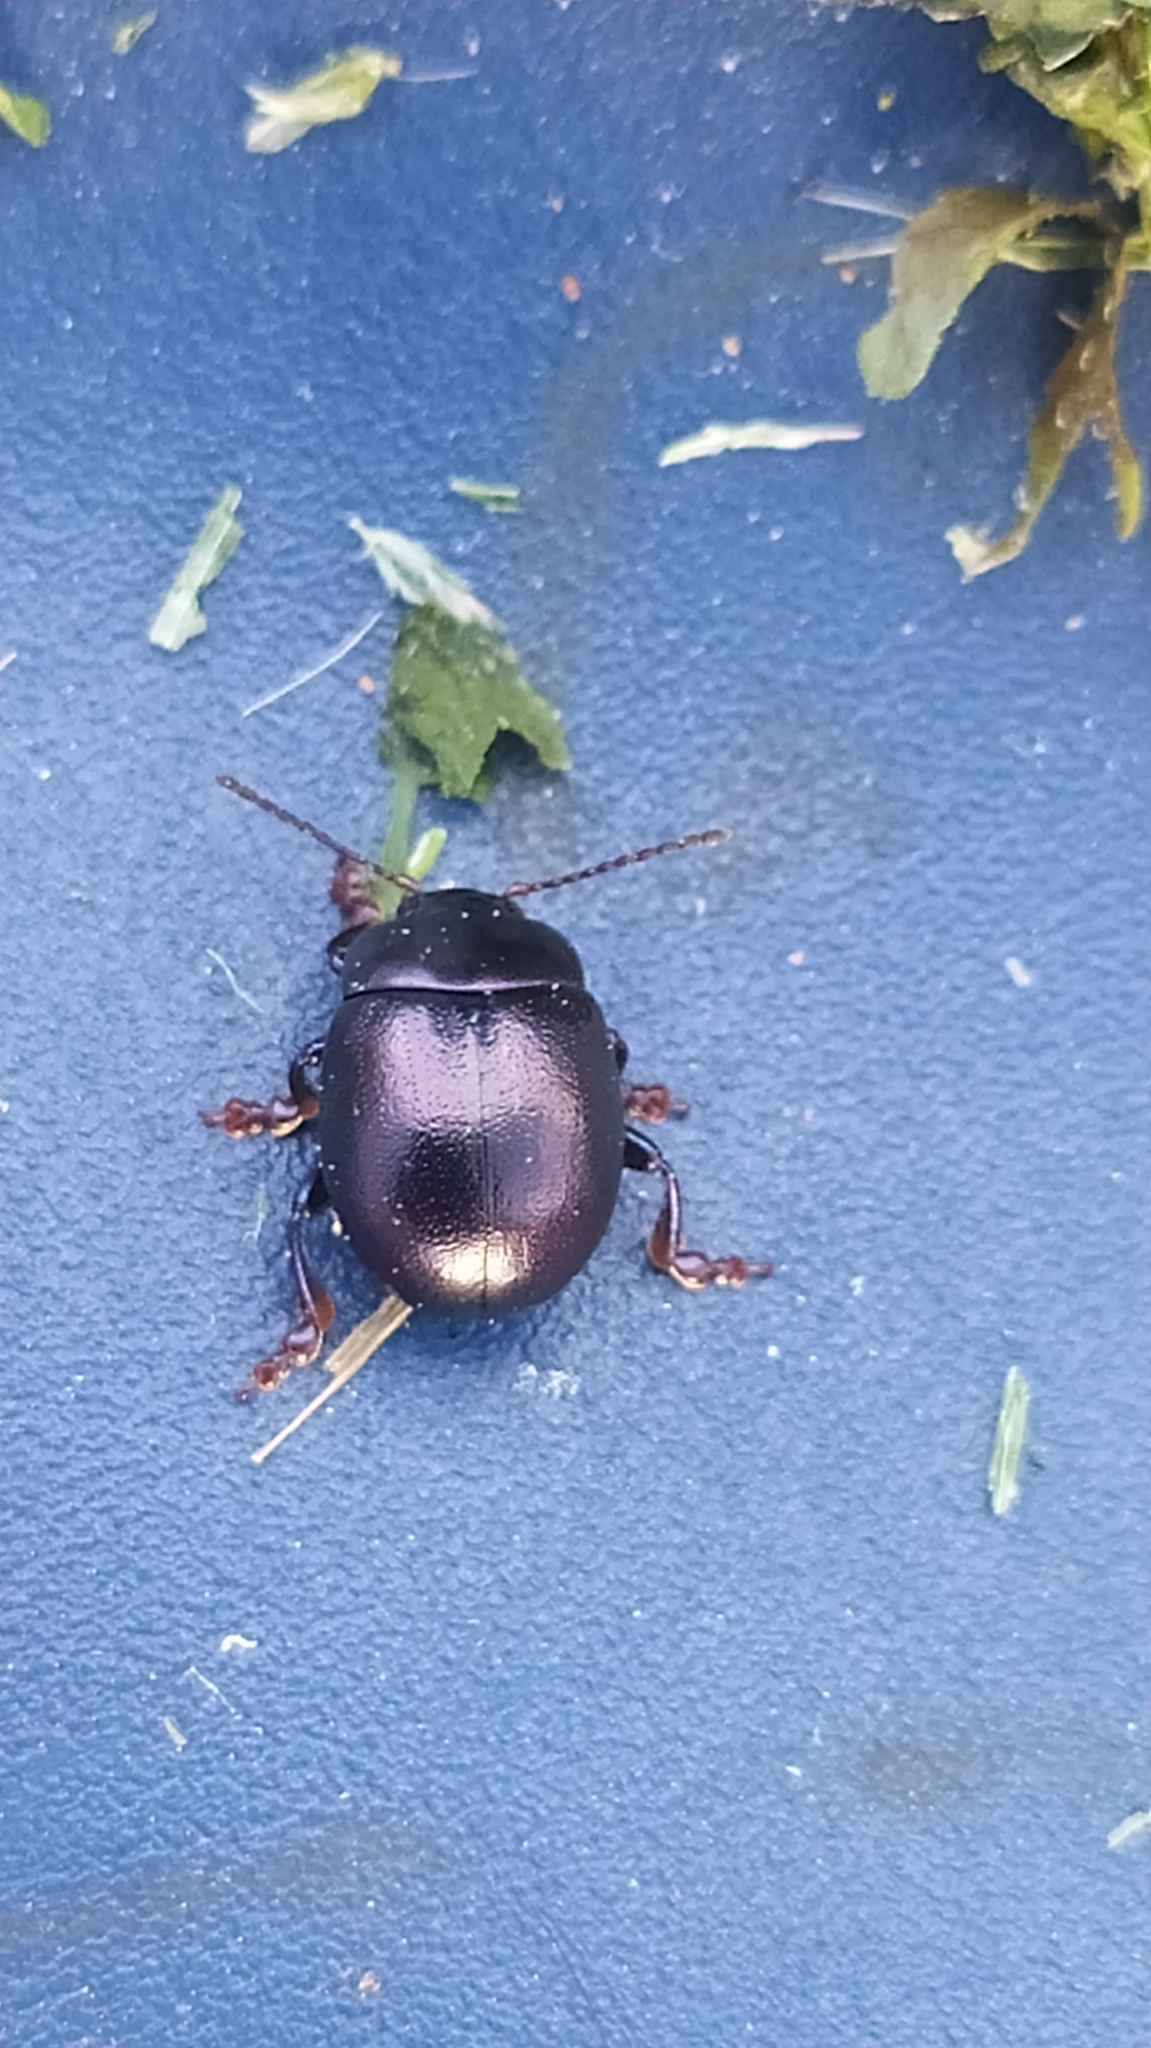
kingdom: Animalia
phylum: Arthropoda
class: Insecta
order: Coleoptera
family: Chrysomelidae
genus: Chrysolina
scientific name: Chrysolina sturmi
